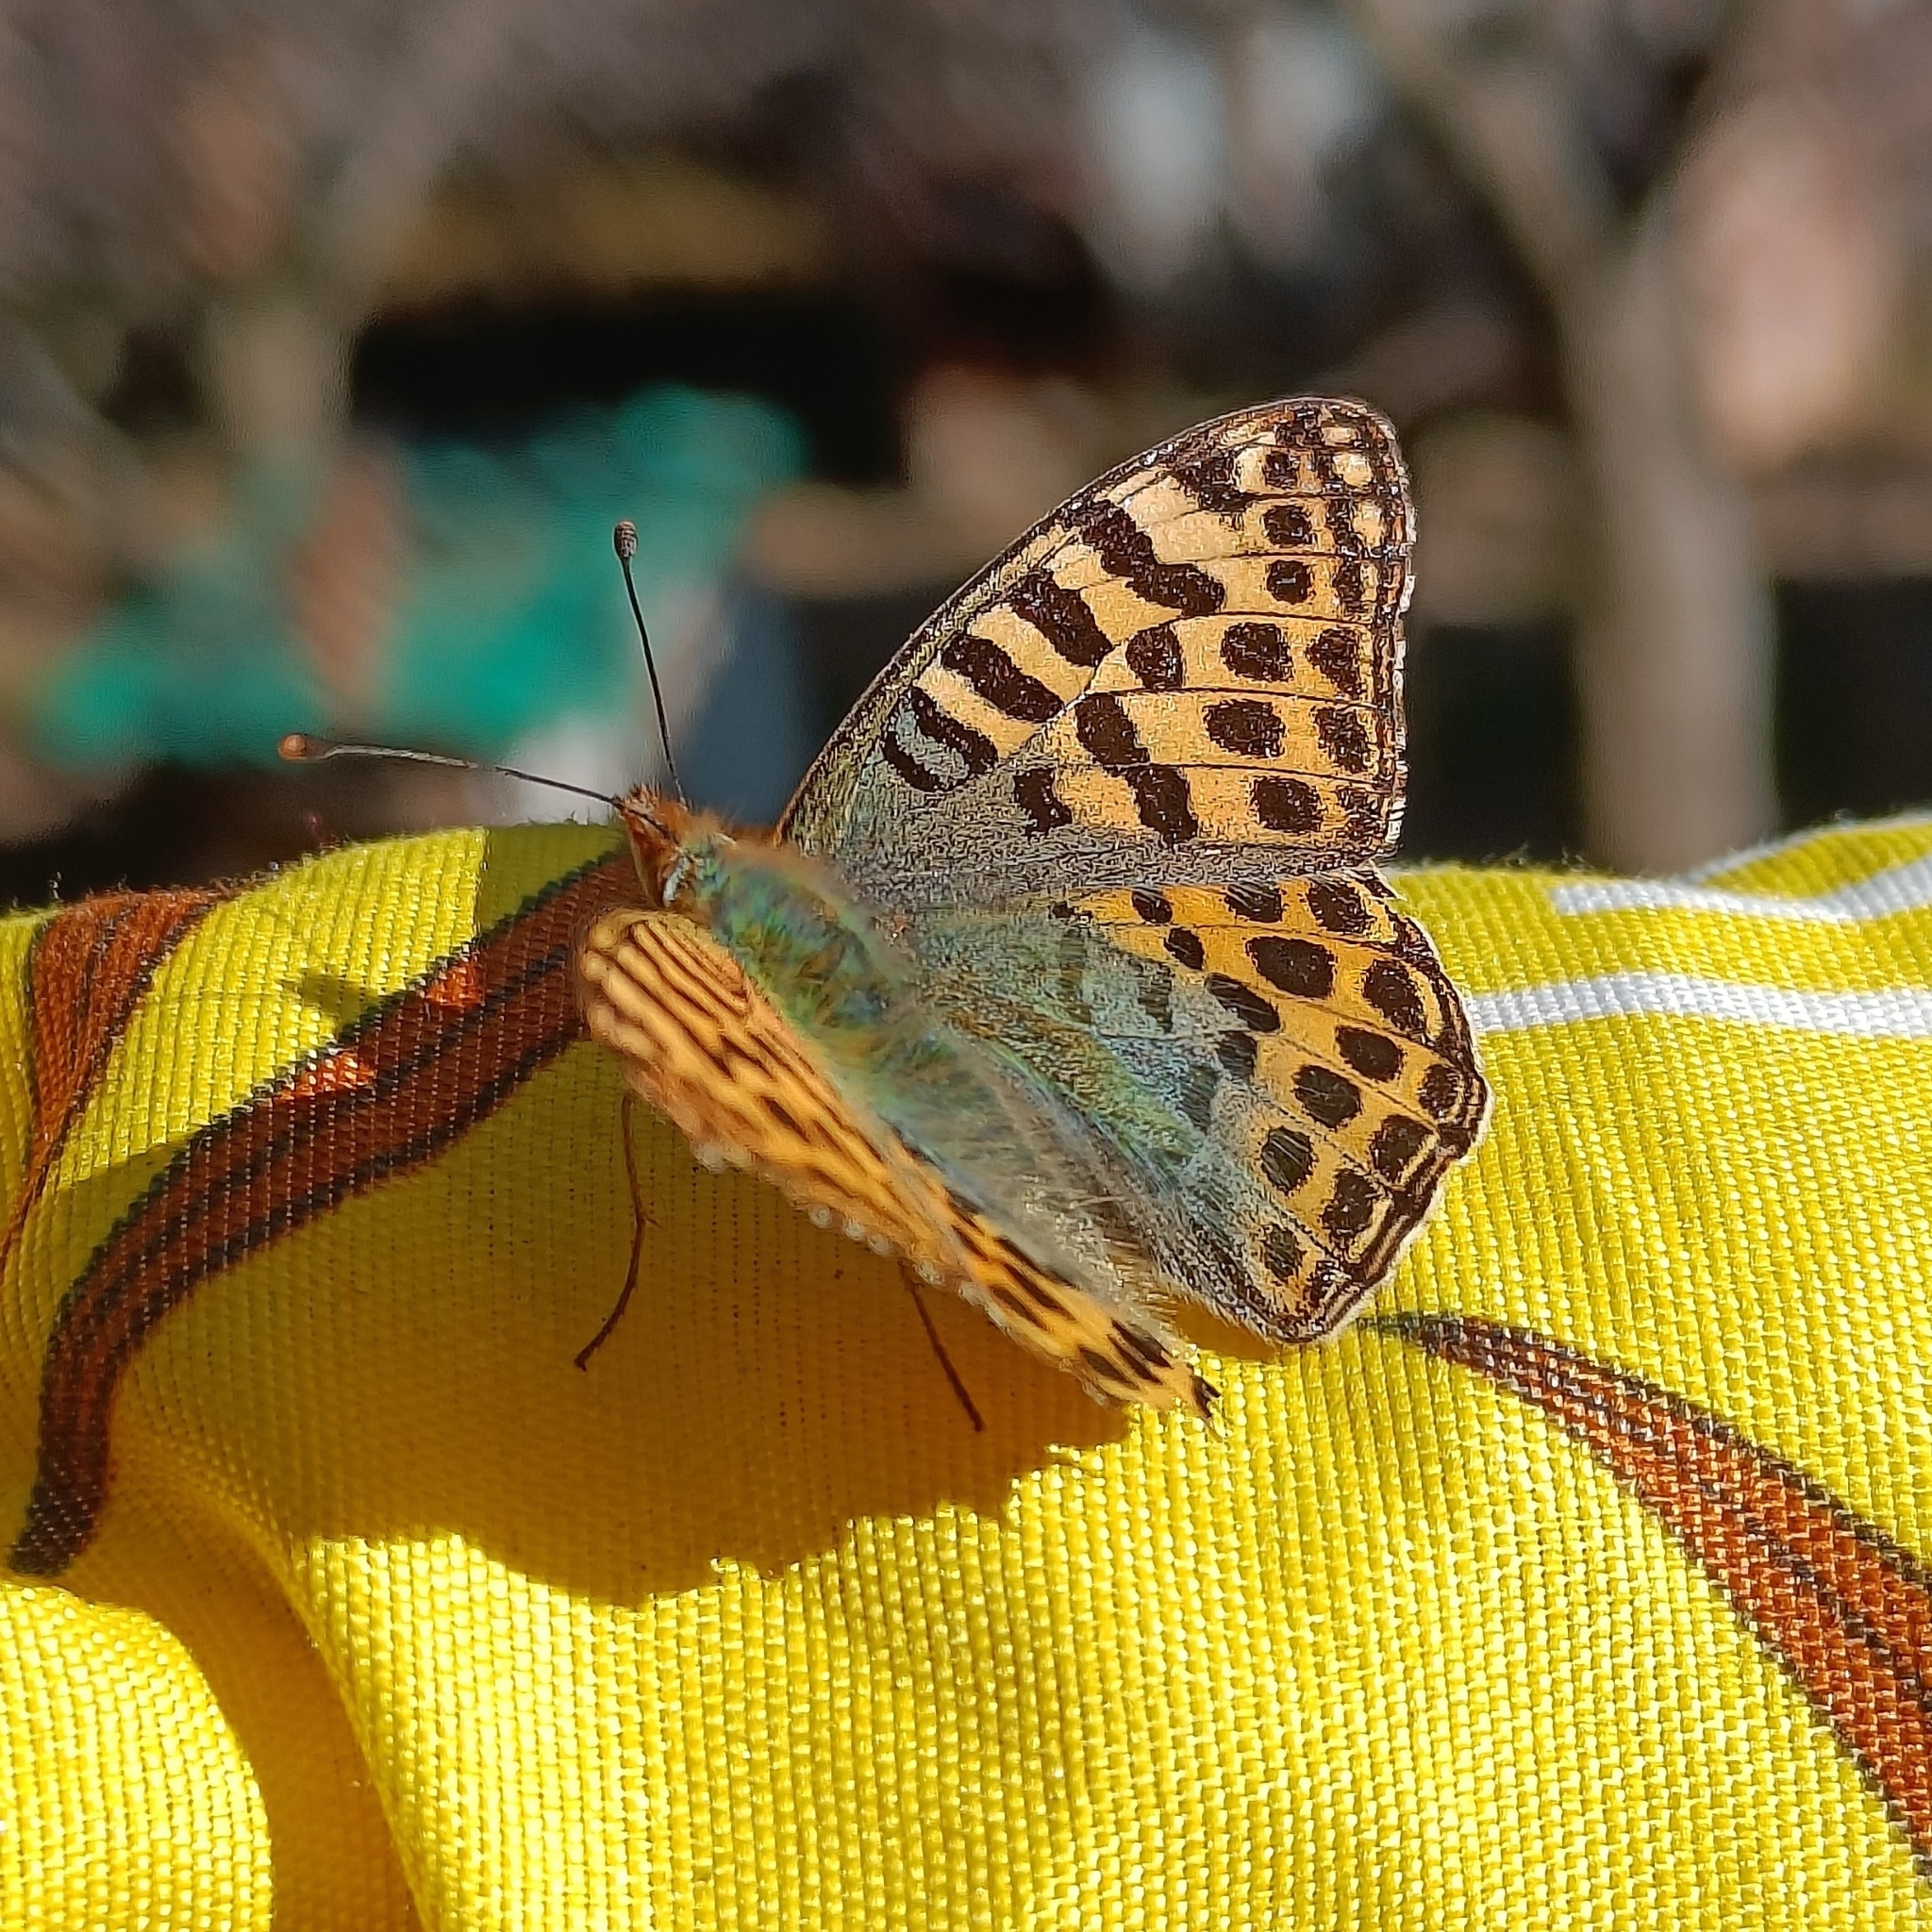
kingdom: Animalia
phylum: Arthropoda
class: Insecta
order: Lepidoptera
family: Nymphalidae
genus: Issoria
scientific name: Issoria
